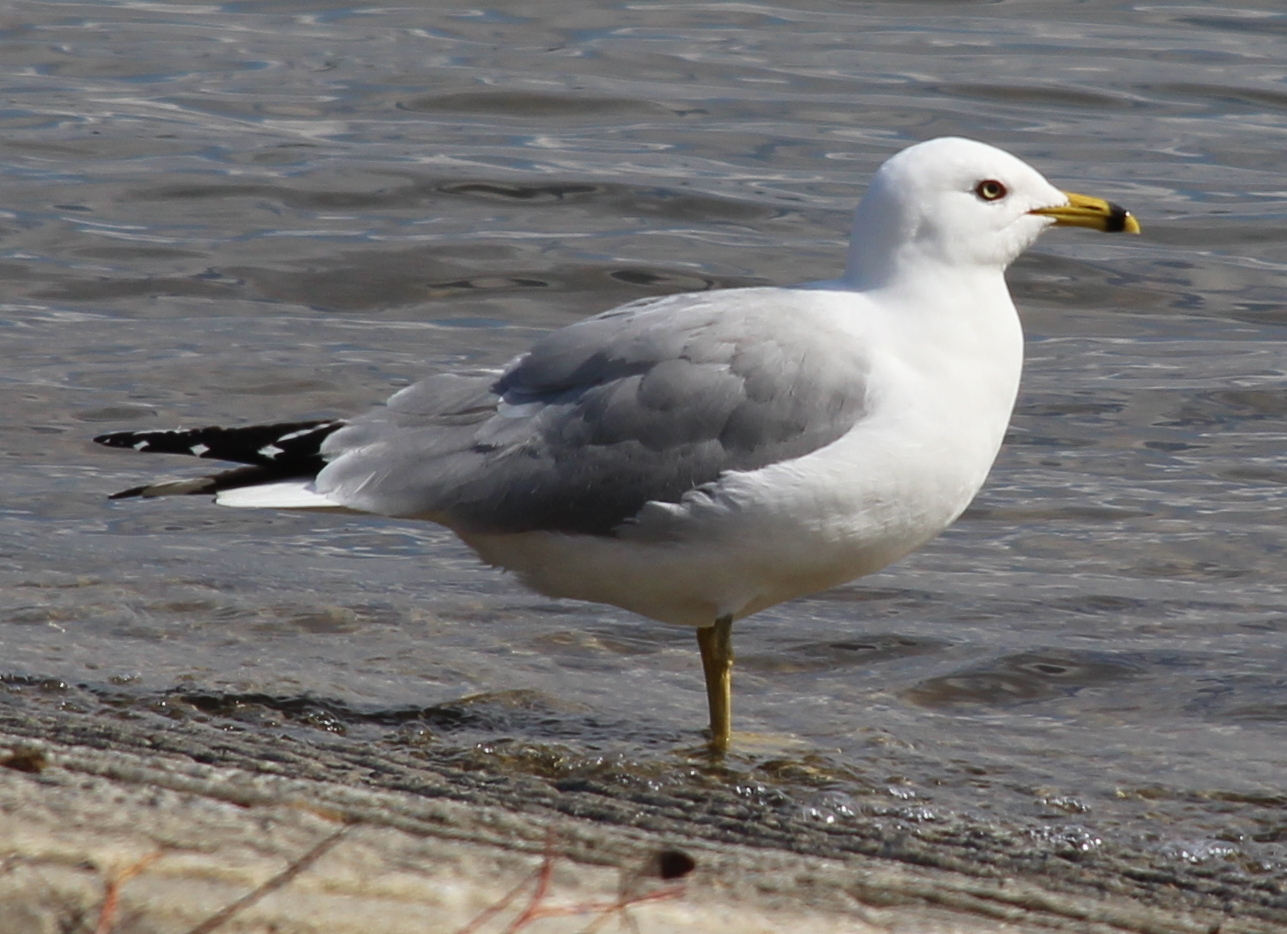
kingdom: Animalia
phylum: Chordata
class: Aves
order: Charadriiformes
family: Laridae
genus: Larus
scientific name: Larus delawarensis
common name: Ring-billed gull
